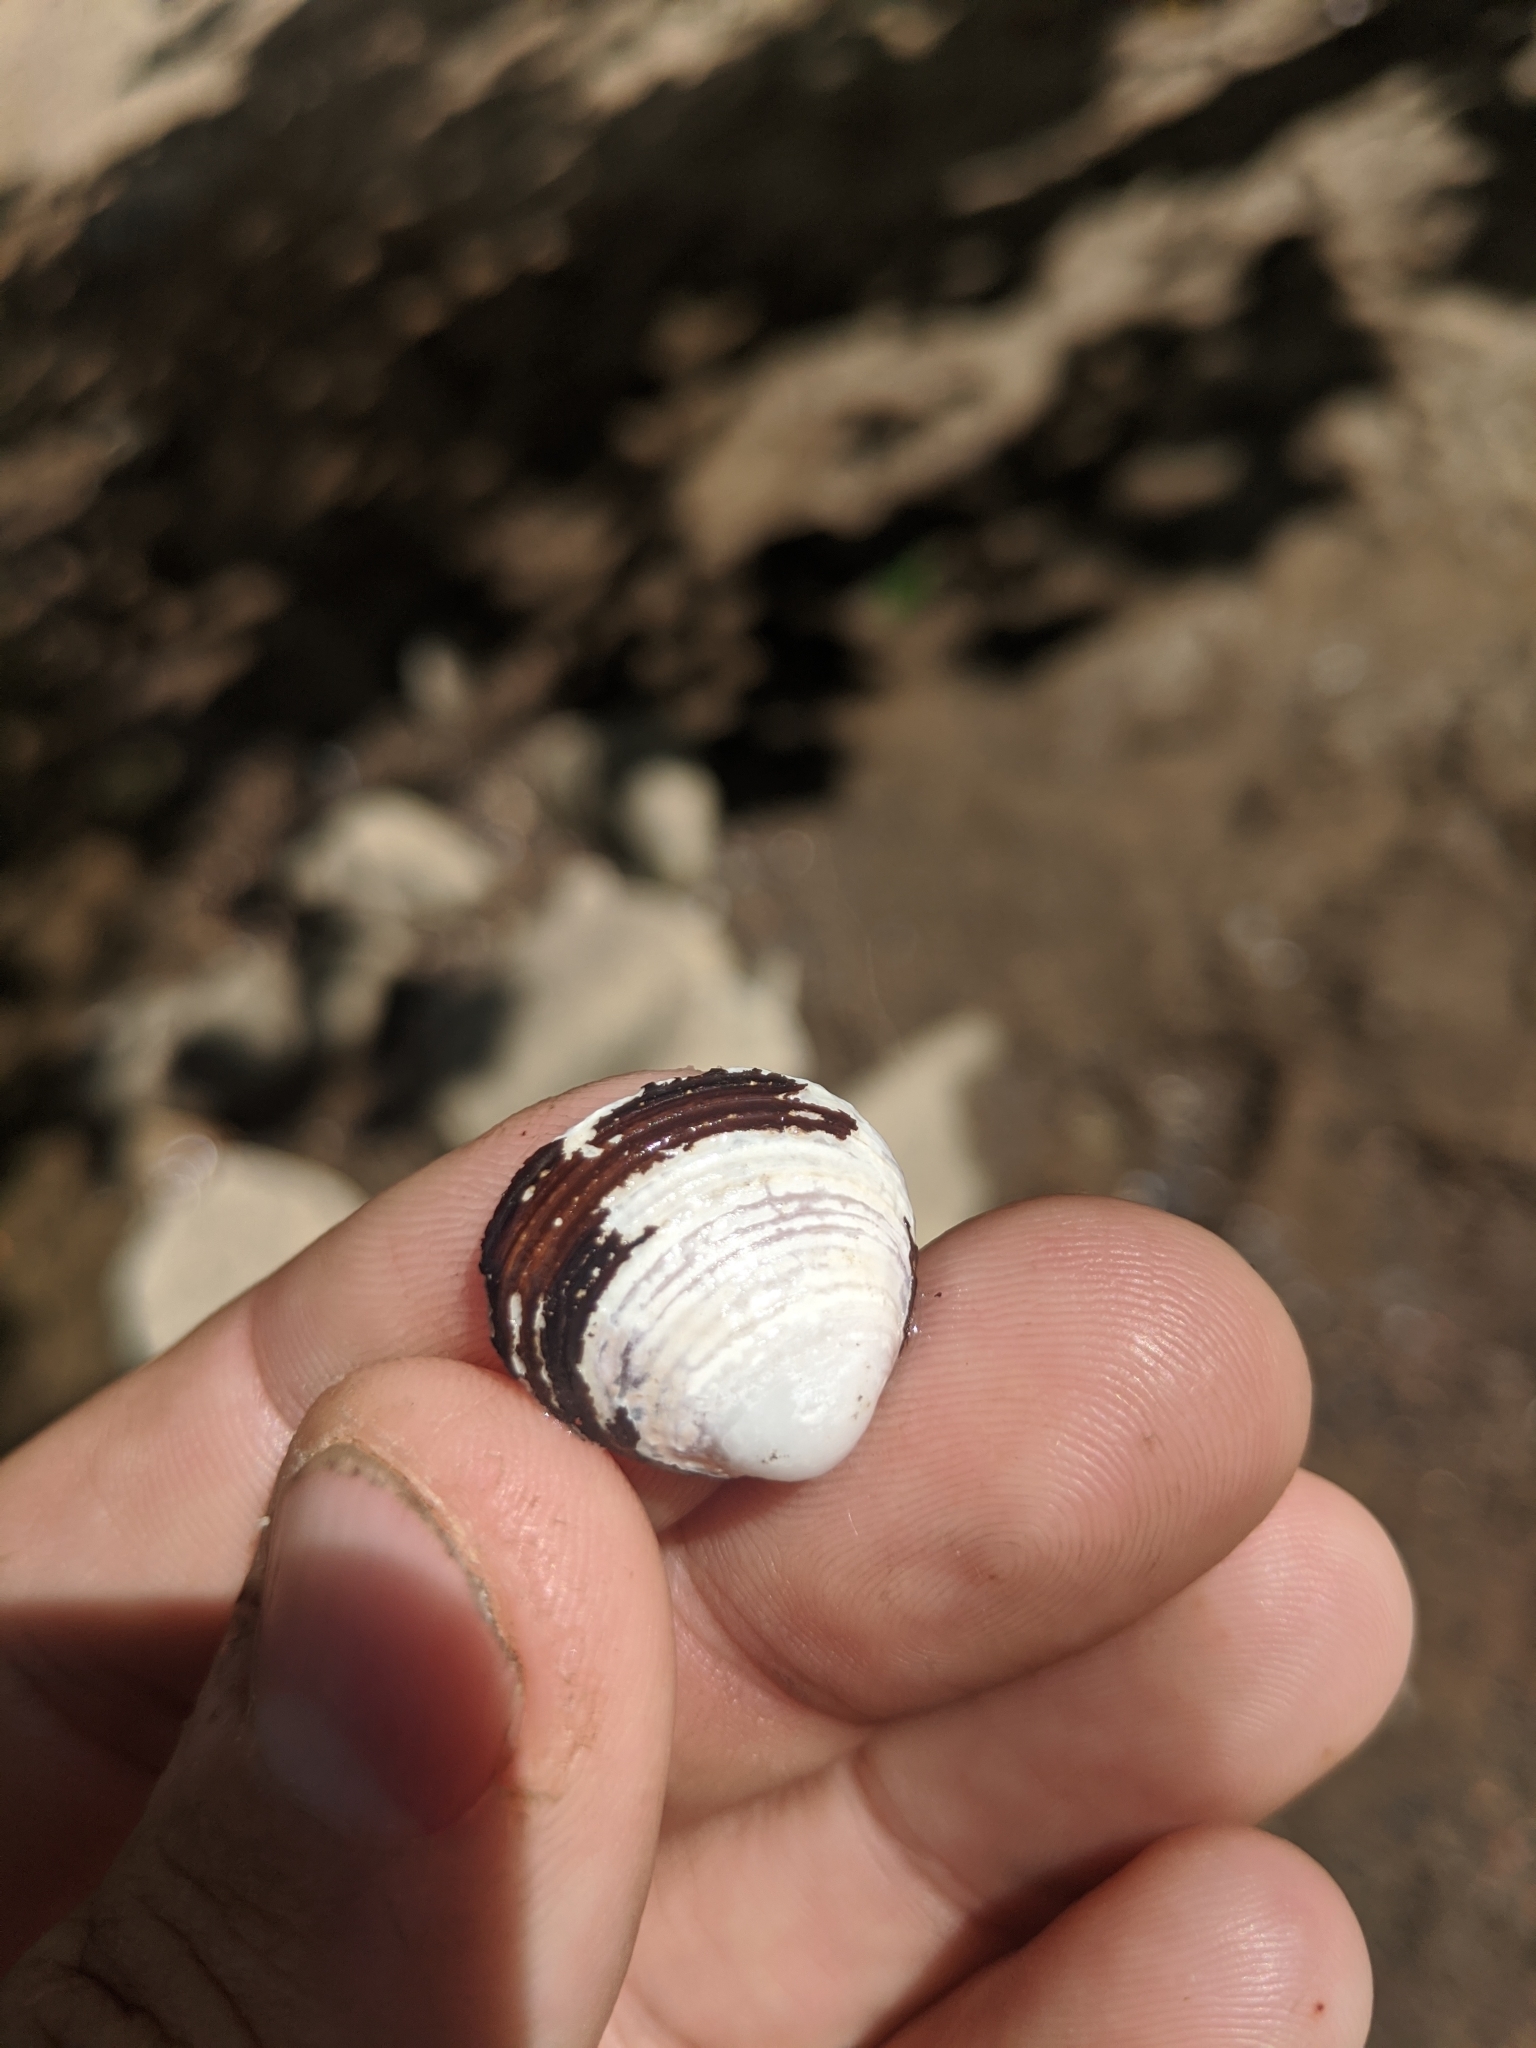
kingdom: Animalia
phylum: Mollusca
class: Bivalvia
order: Venerida
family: Cyrenidae
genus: Corbicula
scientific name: Corbicula fluminea
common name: Asian clam
